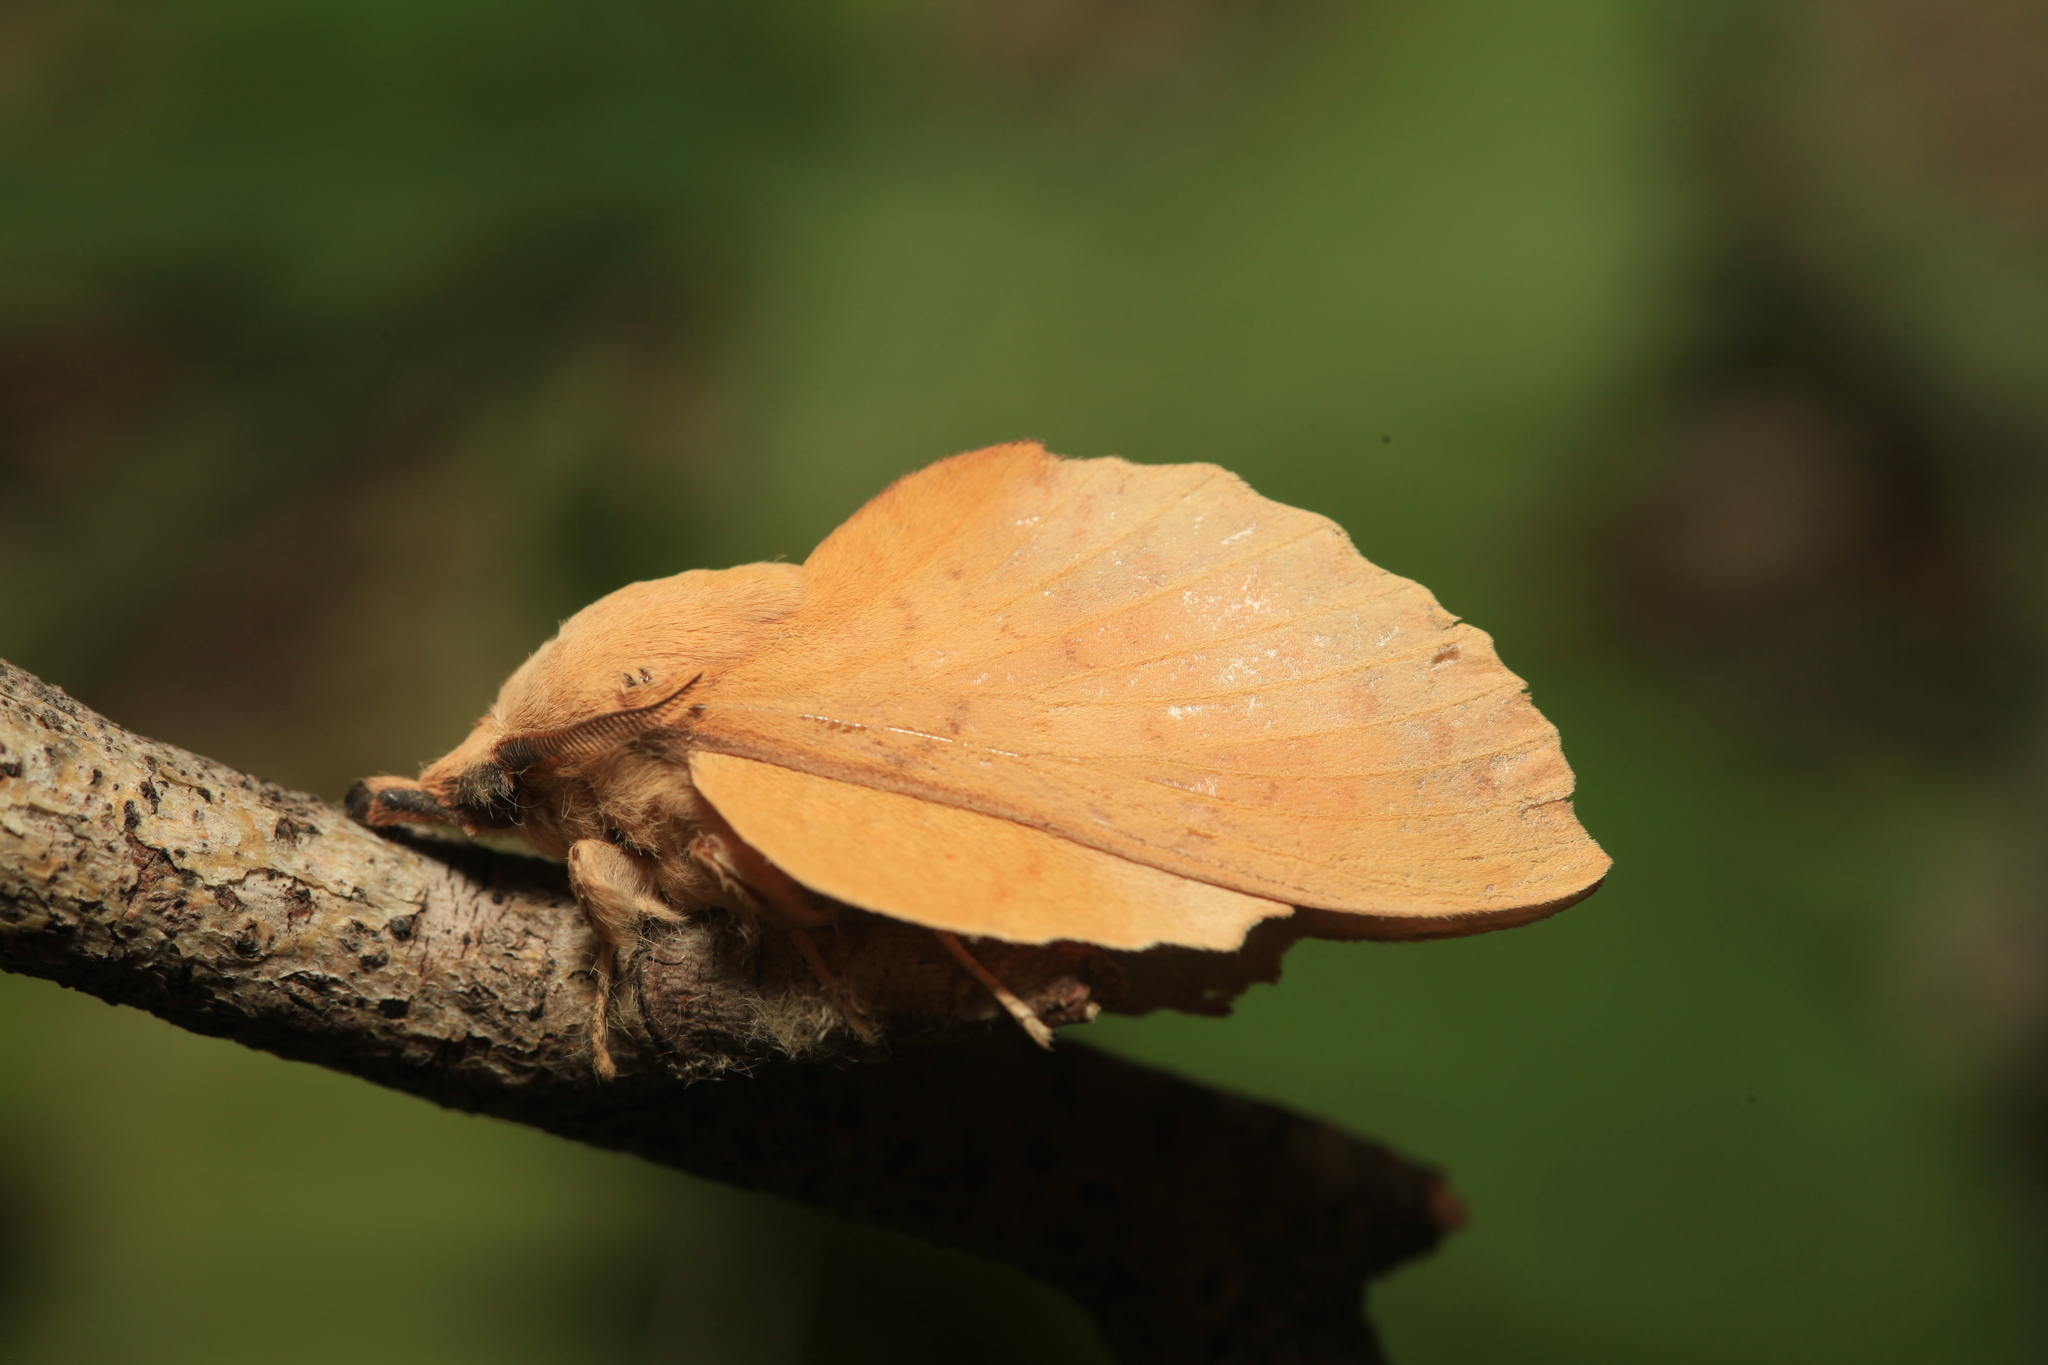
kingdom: Animalia
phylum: Arthropoda
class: Insecta
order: Lepidoptera
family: Lasiocampidae
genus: Gastropacha
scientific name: Gastropacha populifolia
